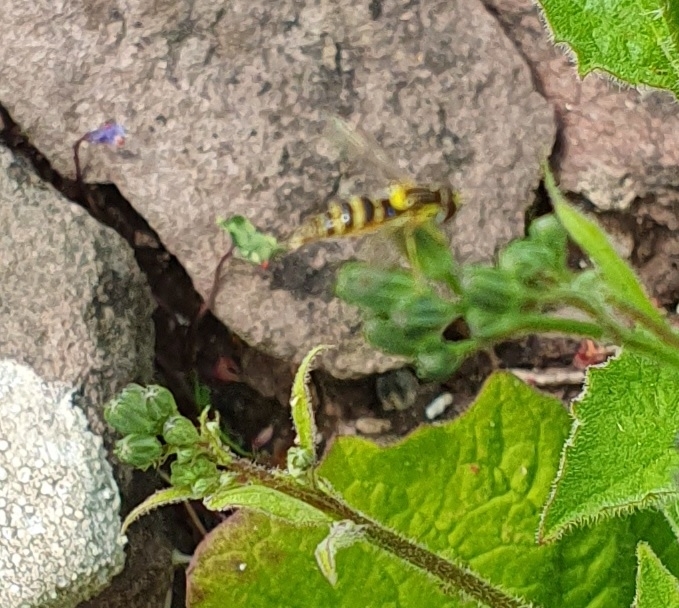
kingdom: Animalia
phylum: Arthropoda
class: Insecta
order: Diptera
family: Syrphidae
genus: Sphaerophoria
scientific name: Sphaerophoria
